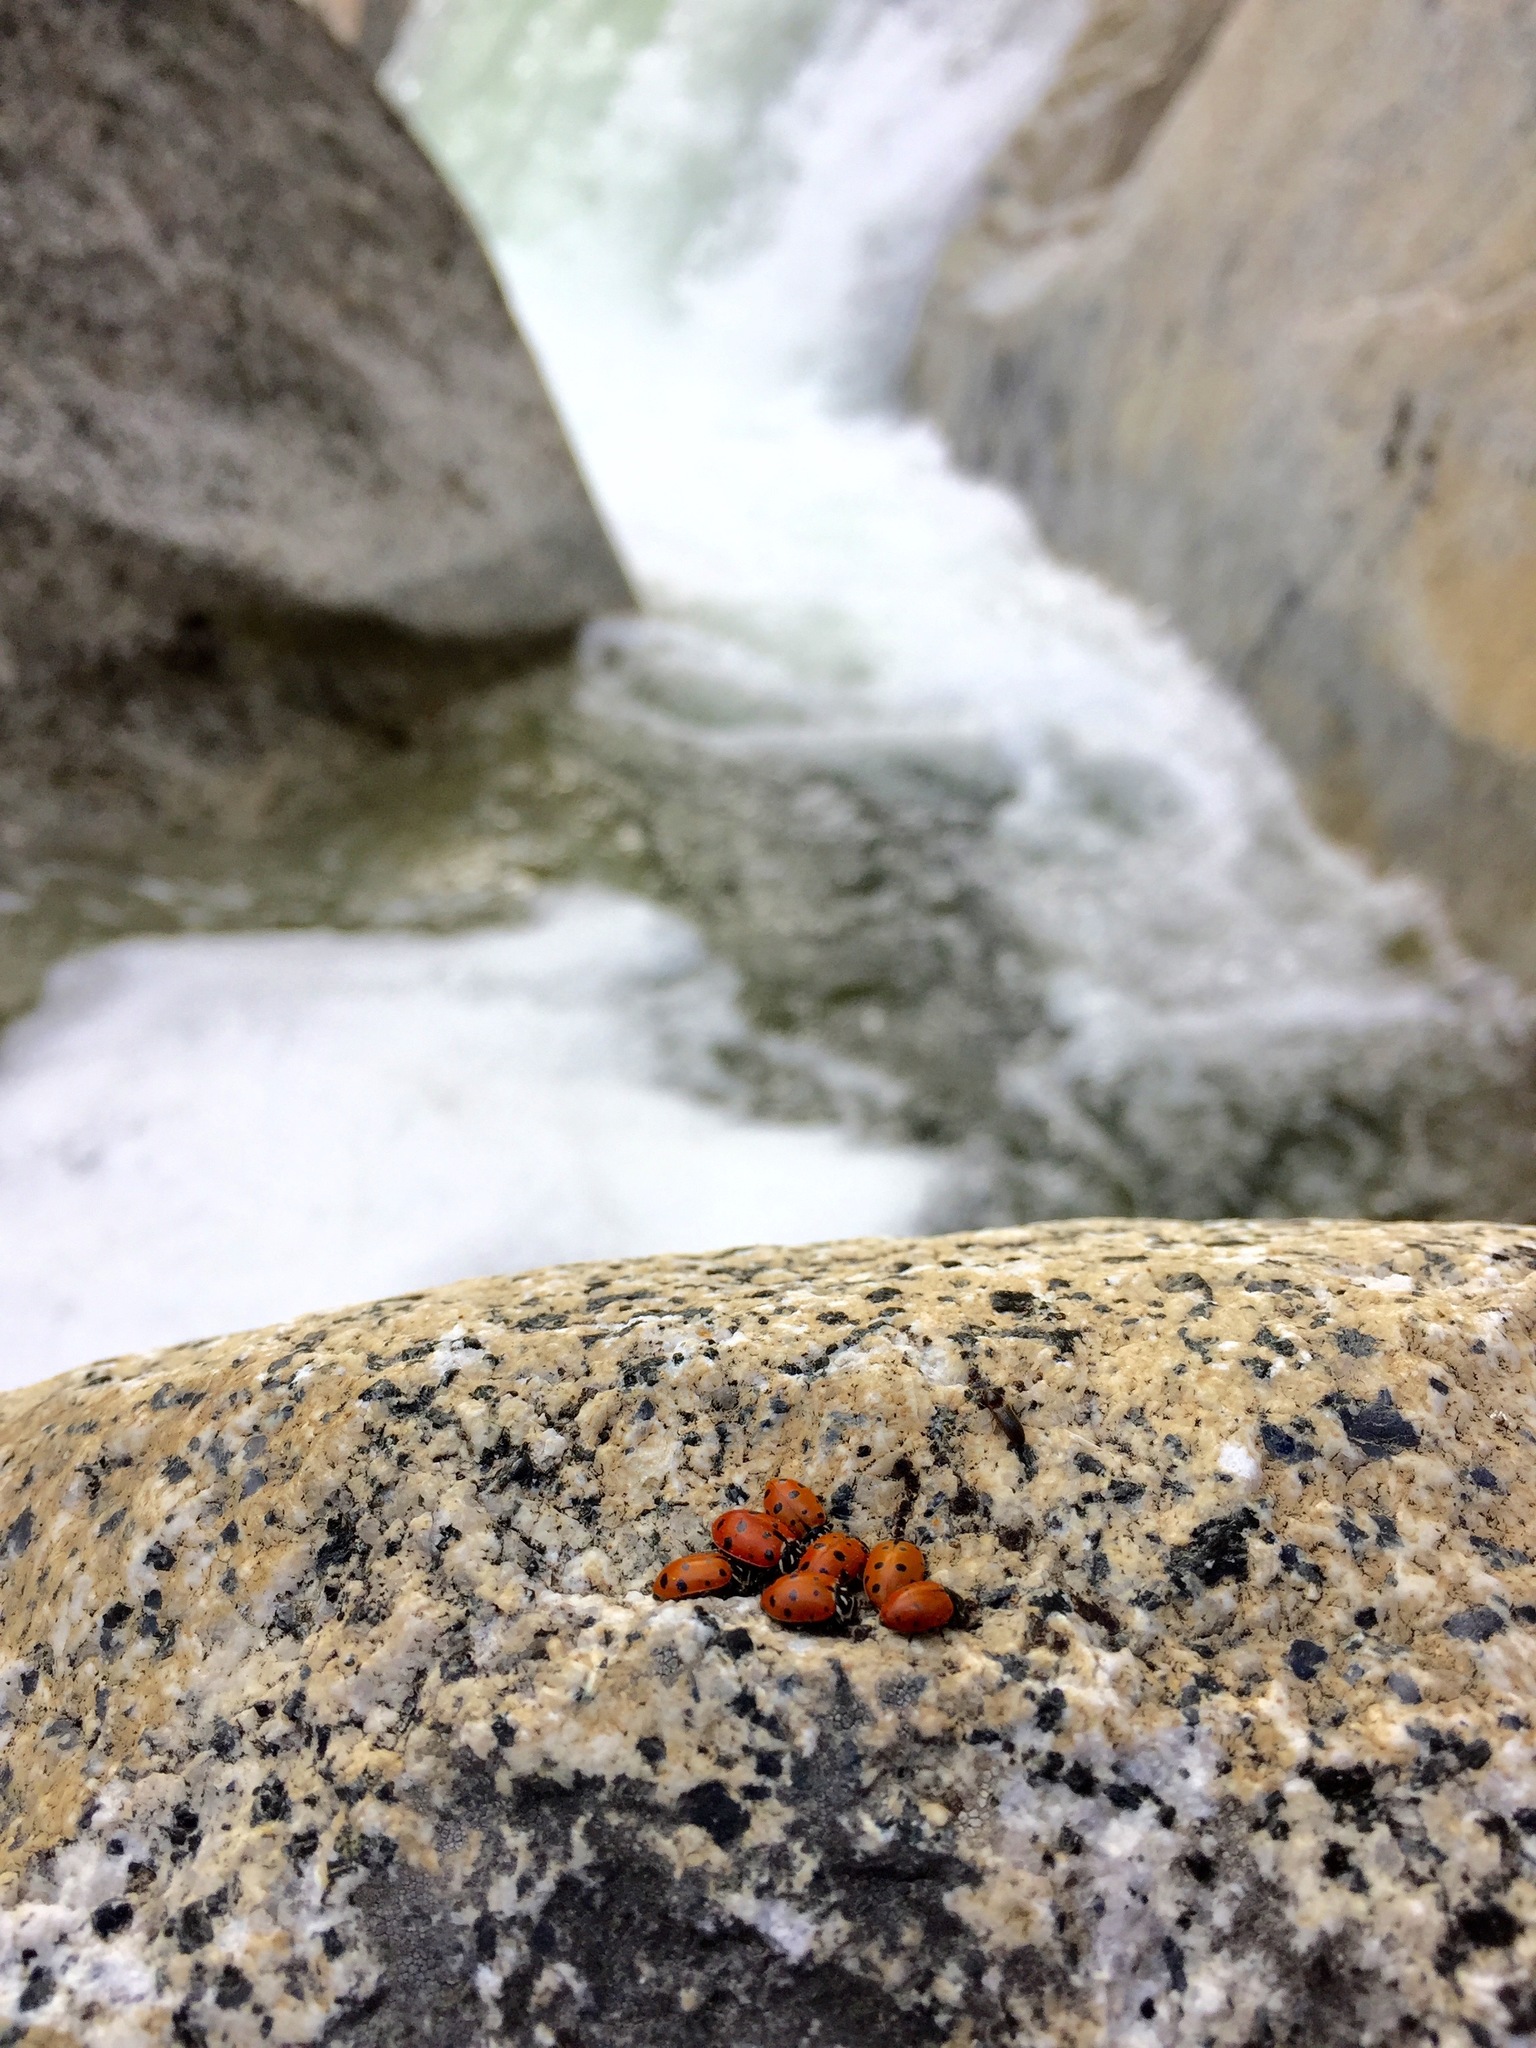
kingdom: Animalia
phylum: Arthropoda
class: Insecta
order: Coleoptera
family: Coccinellidae
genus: Hippodamia
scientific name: Hippodamia convergens
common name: Convergent lady beetle
